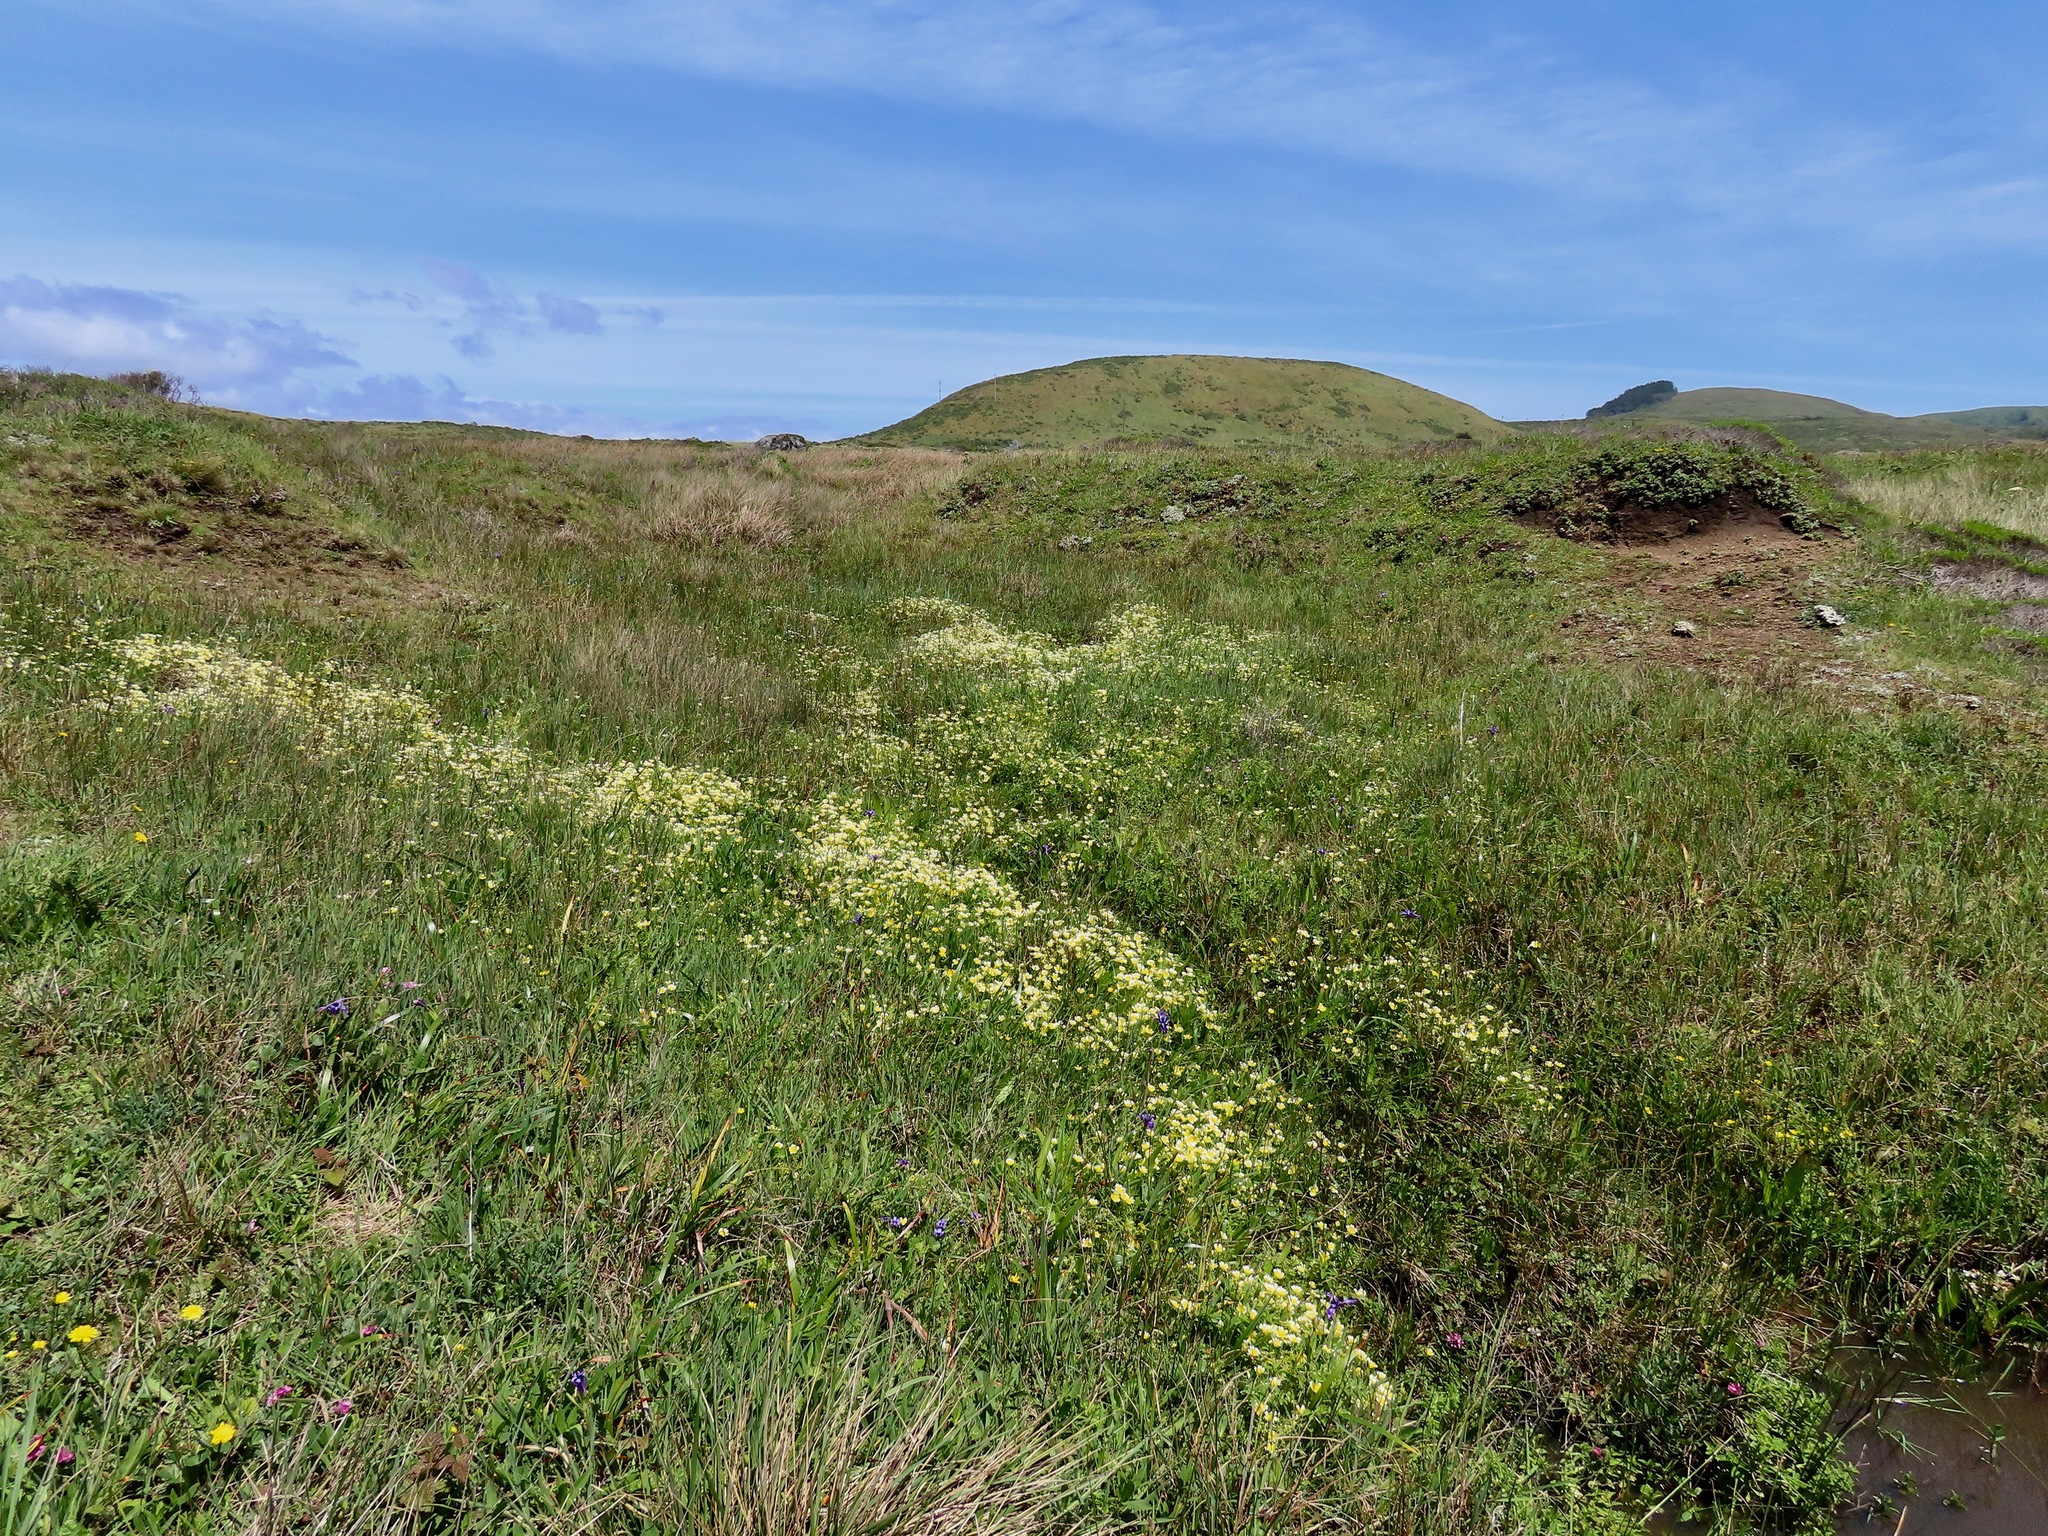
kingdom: Plantae
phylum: Tracheophyta
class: Magnoliopsida
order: Brassicales
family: Limnanthaceae
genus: Limnanthes
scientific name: Limnanthes douglasii
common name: Meadow-foam
